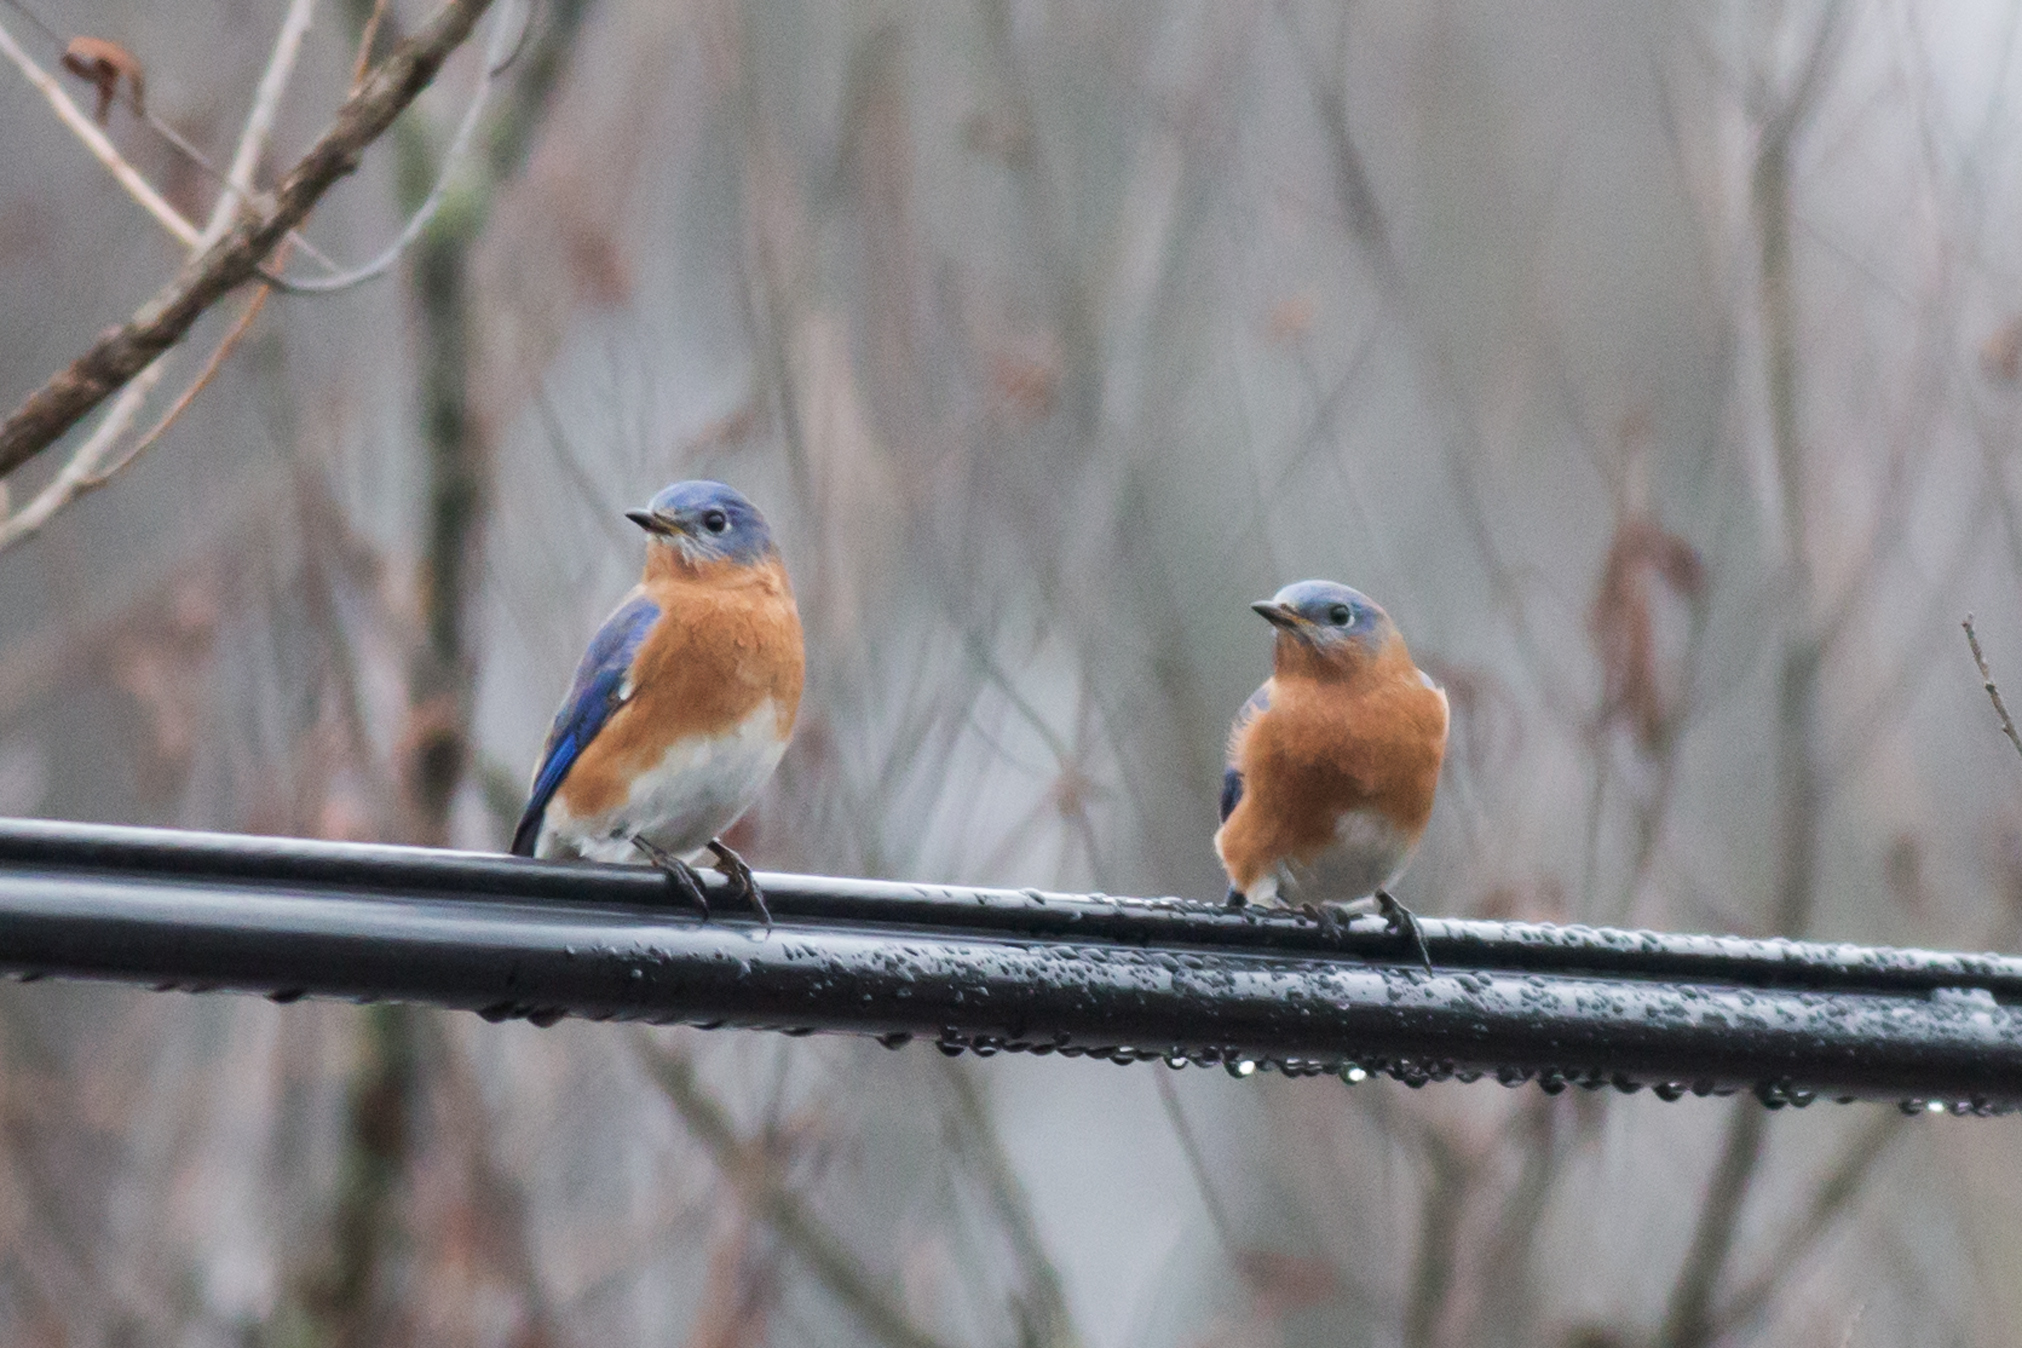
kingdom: Animalia
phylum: Chordata
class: Aves
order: Passeriformes
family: Turdidae
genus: Sialia
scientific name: Sialia sialis
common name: Eastern bluebird
